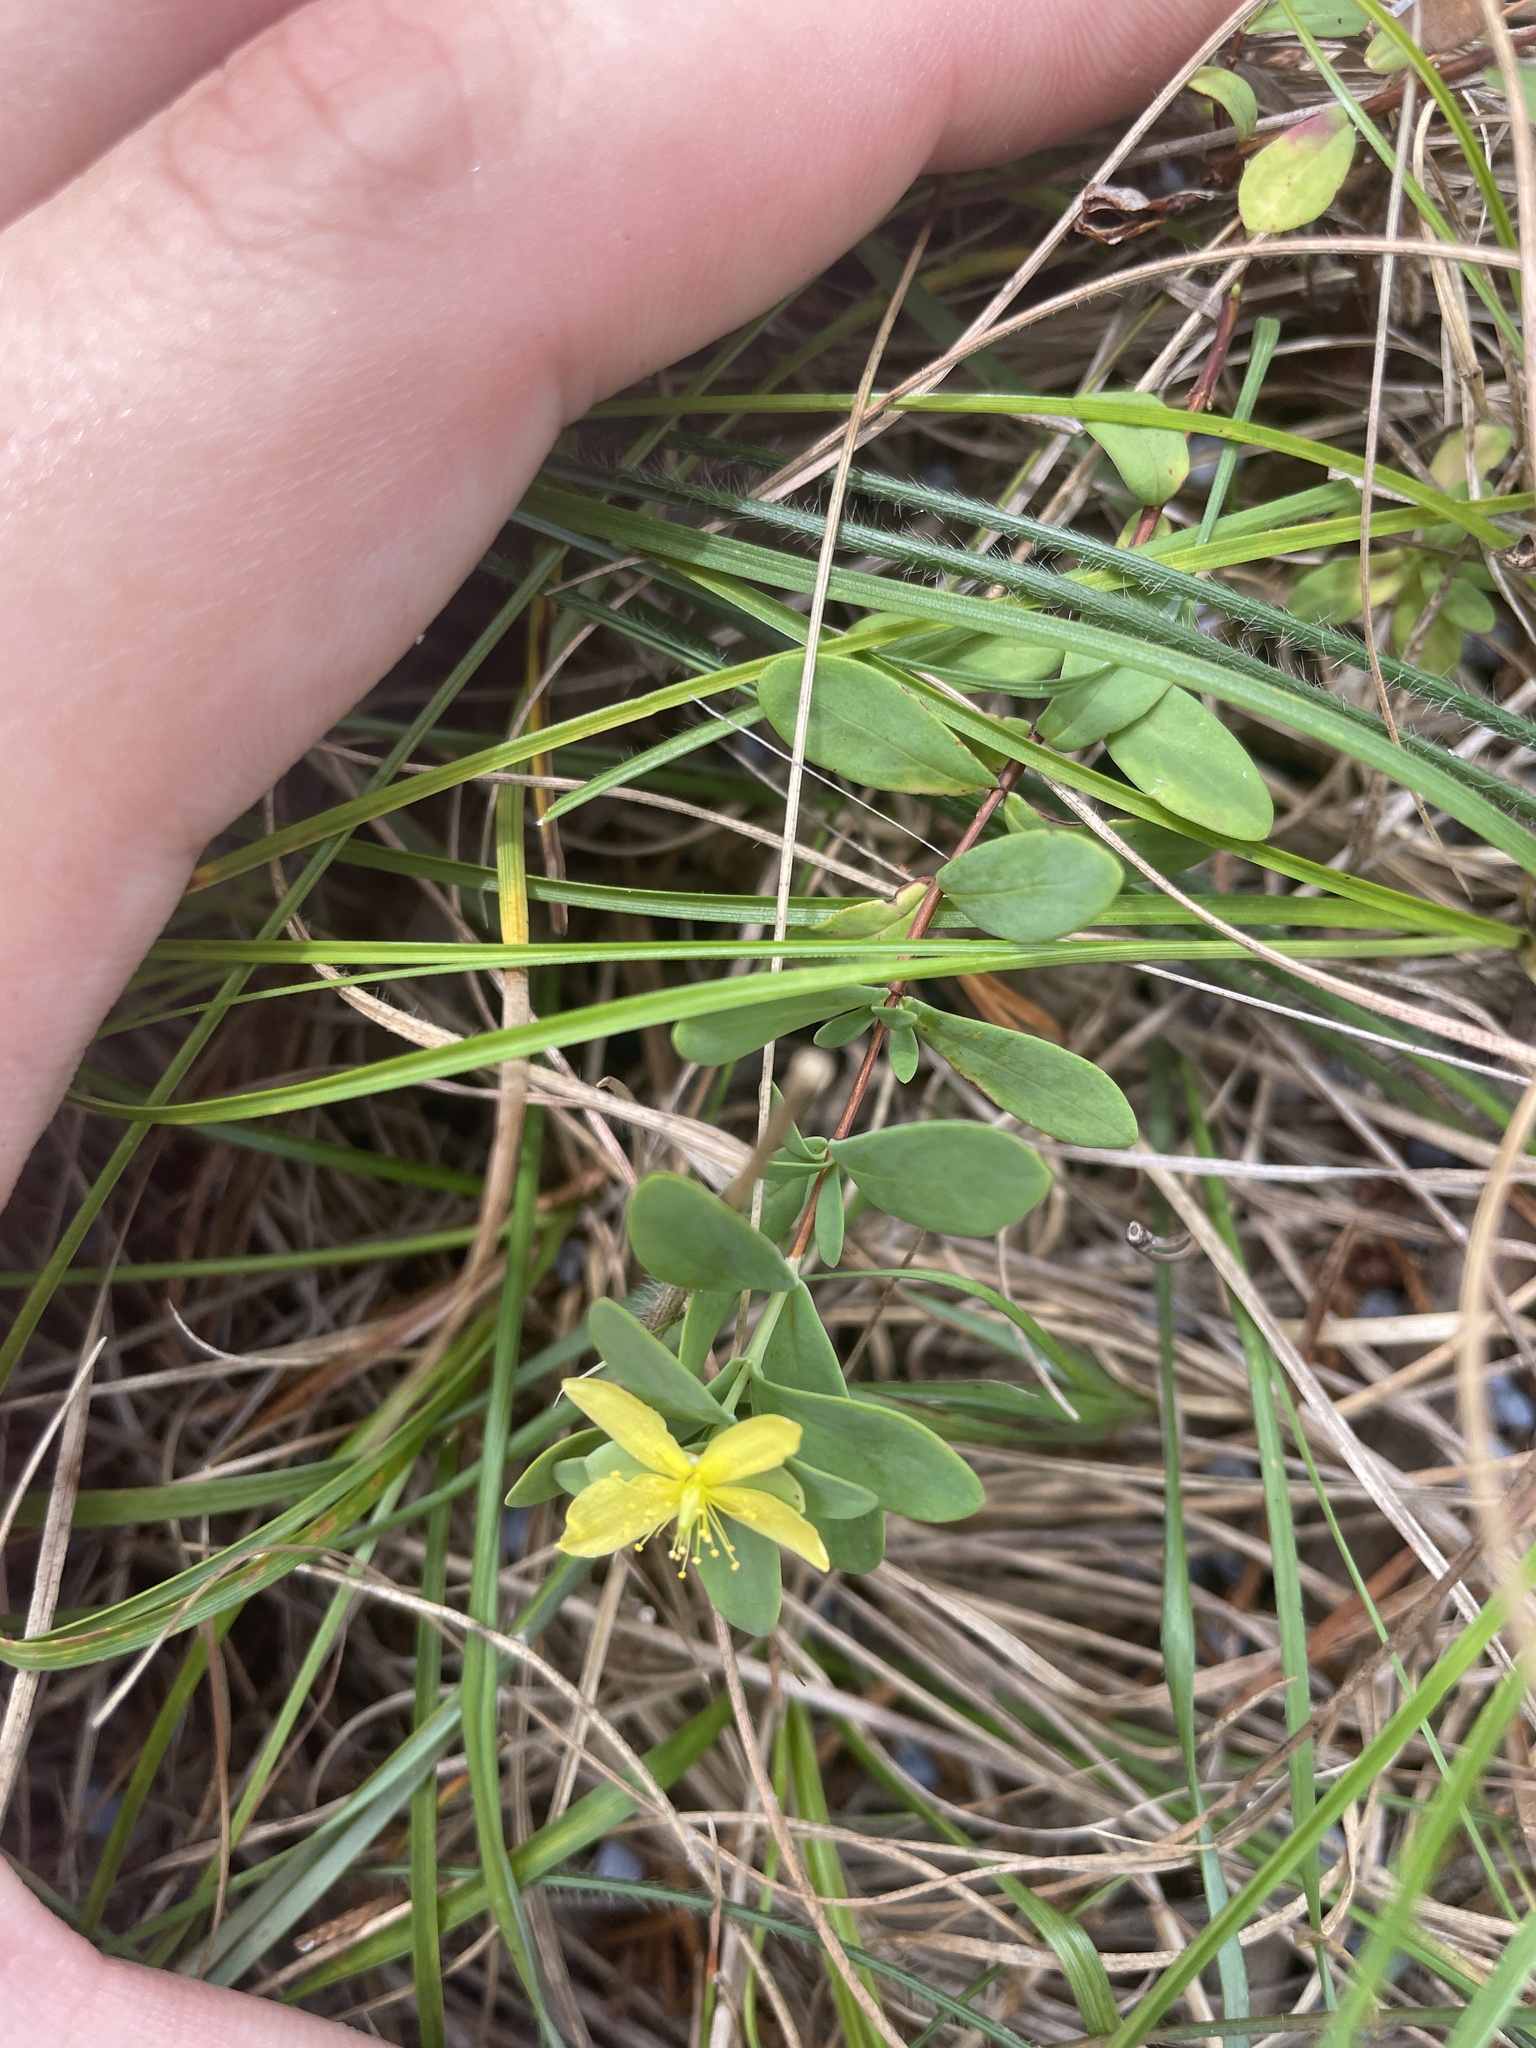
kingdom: Plantae
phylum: Tracheophyta
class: Magnoliopsida
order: Malpighiales
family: Hypericaceae
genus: Hypericum
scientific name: Hypericum hypericoides
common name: St. andrew's cross
